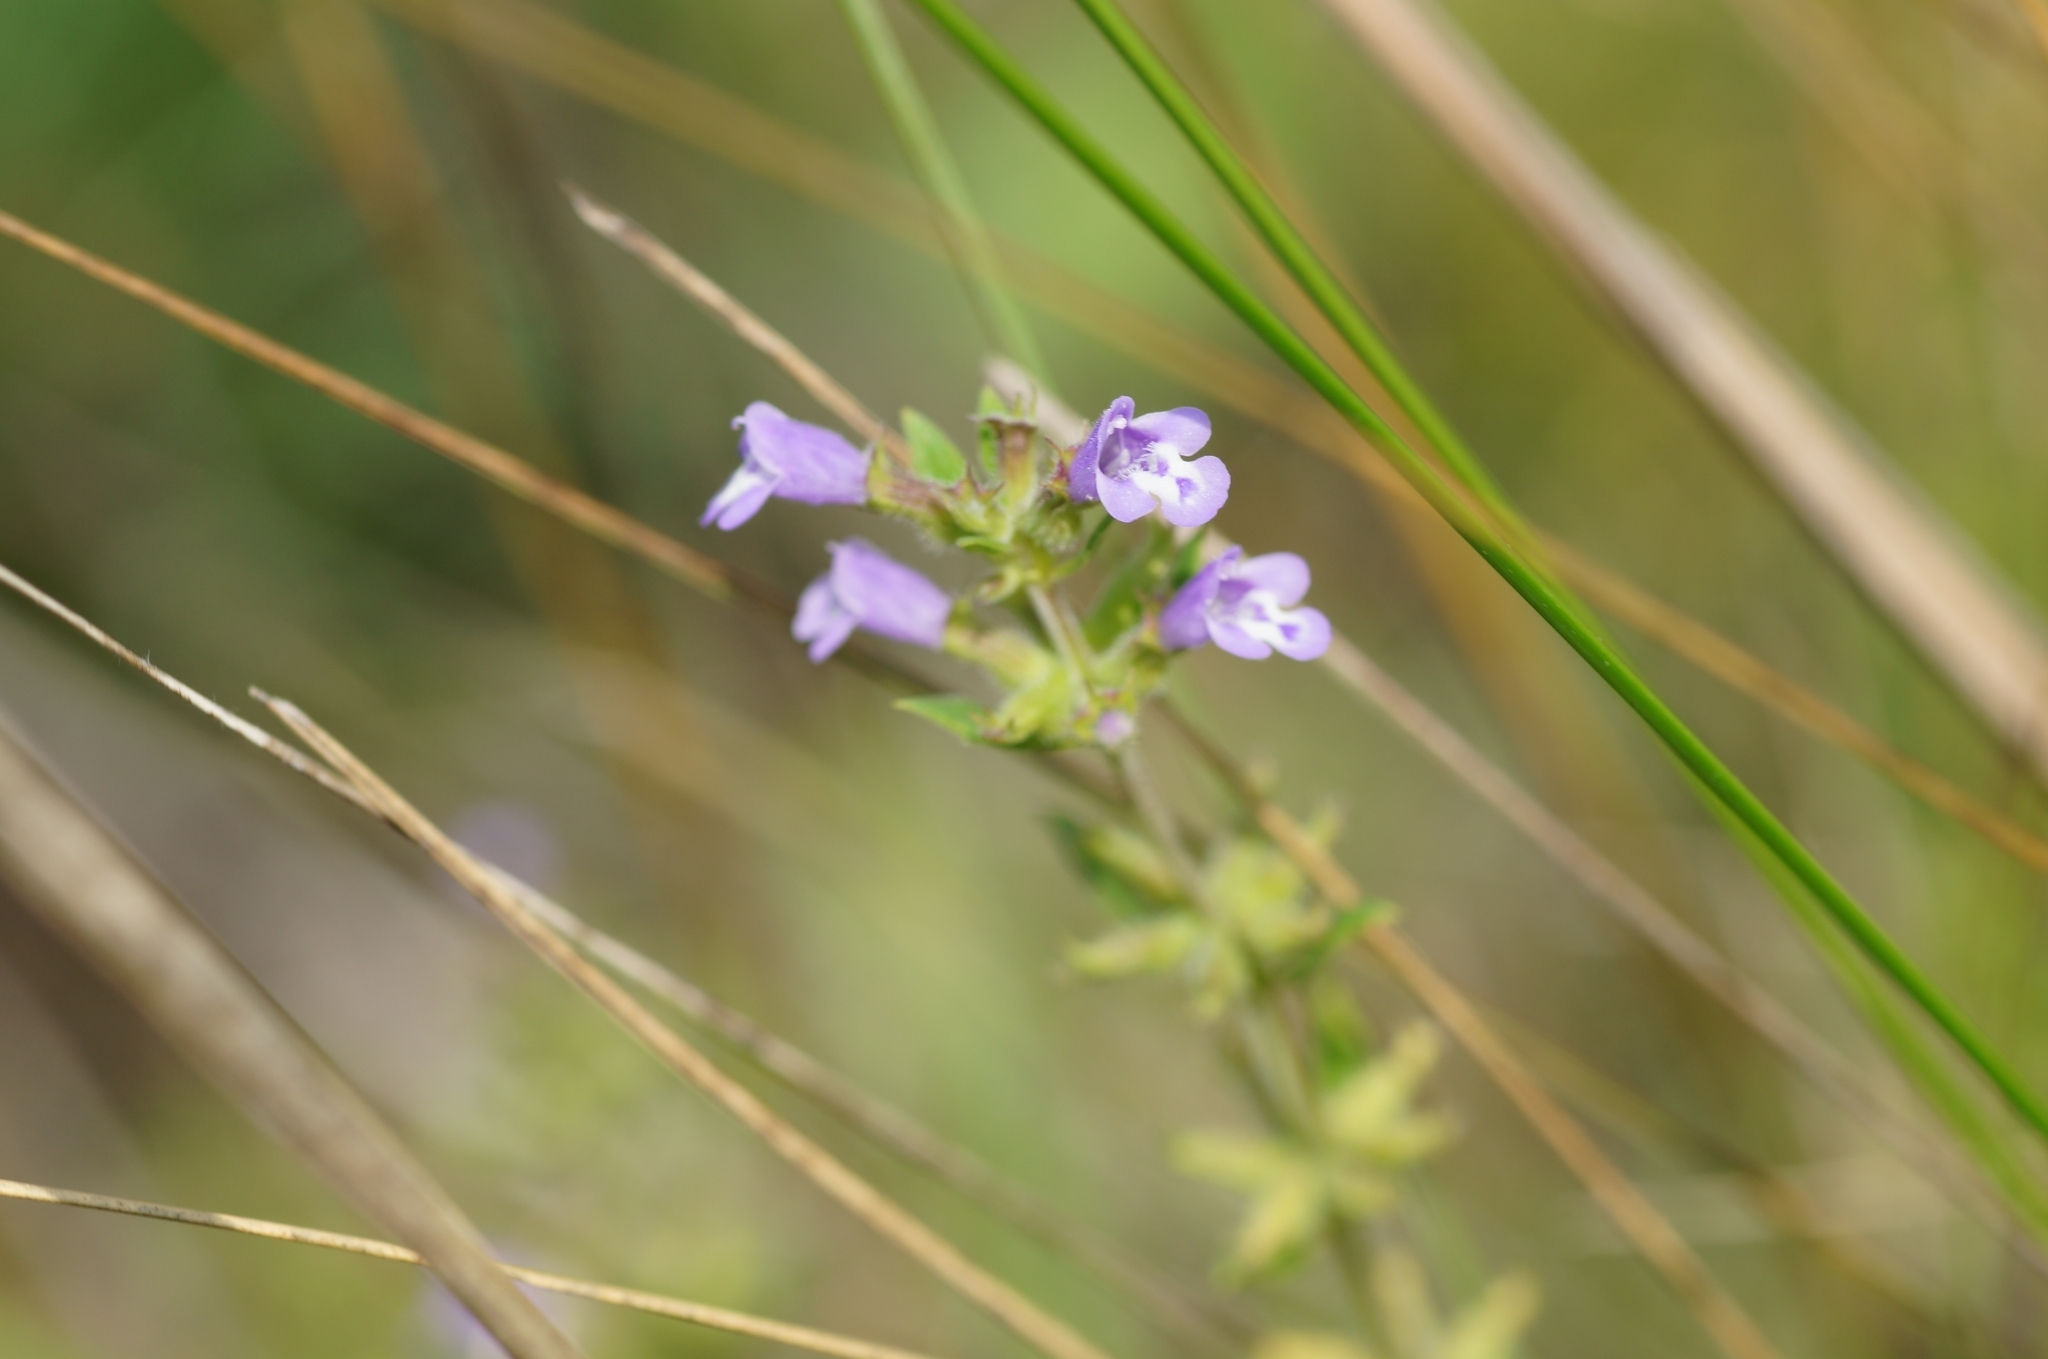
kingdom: Plantae
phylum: Tracheophyta
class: Magnoliopsida
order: Lamiales
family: Lamiaceae
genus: Clinopodium
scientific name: Clinopodium acinos
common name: Basil thyme
